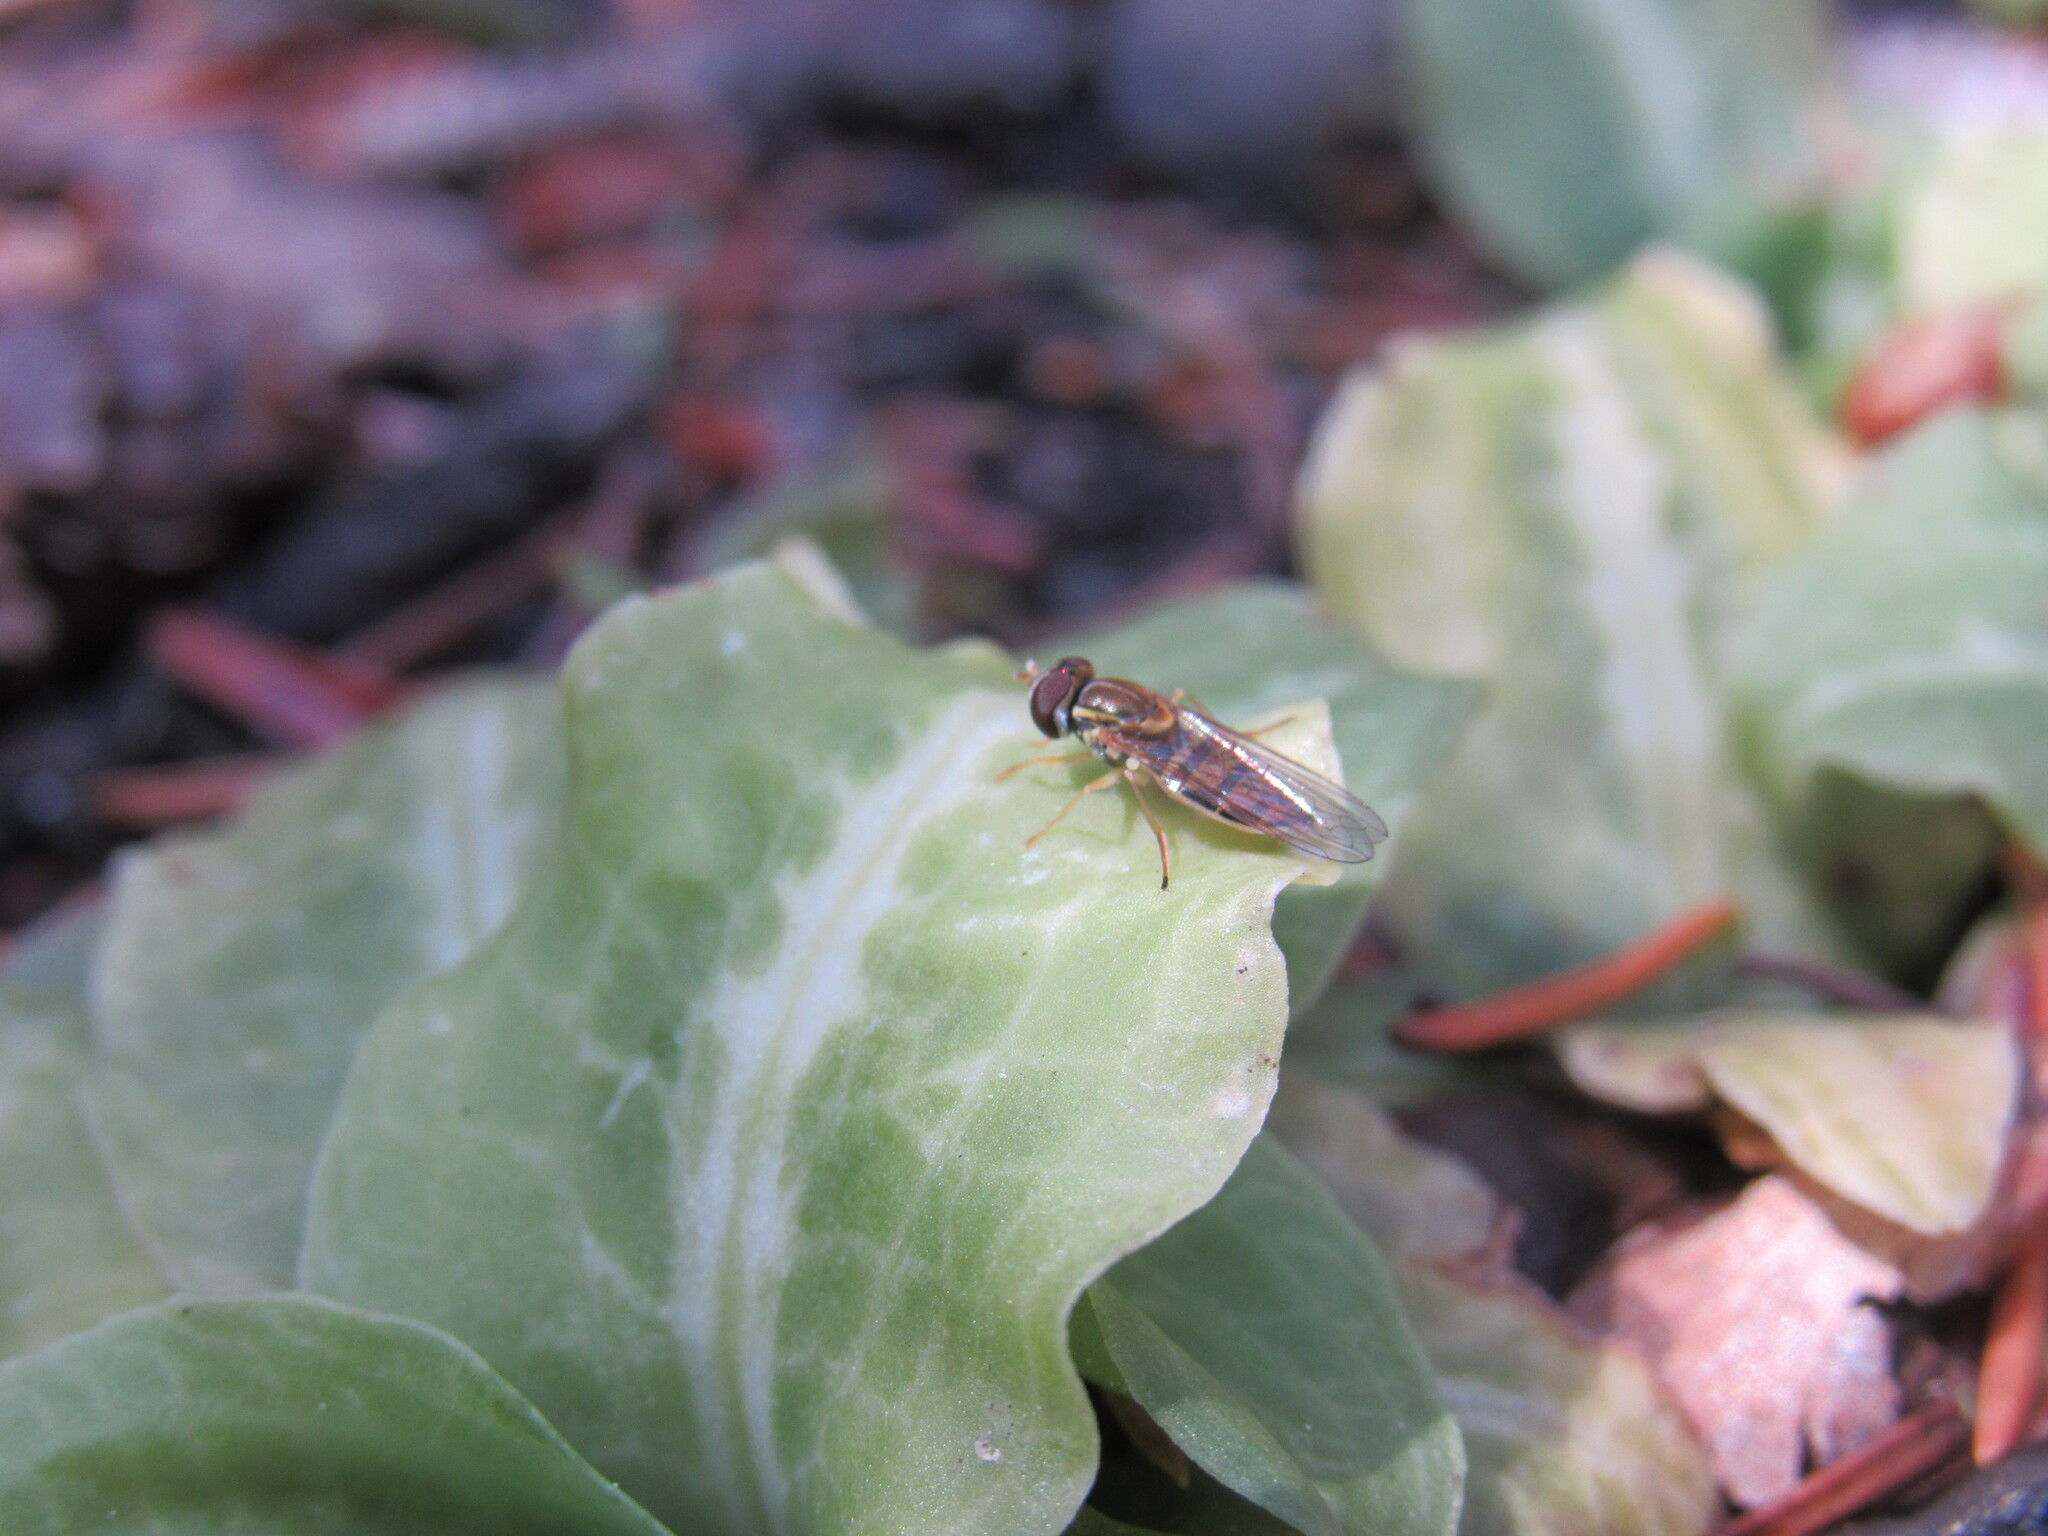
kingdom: Animalia
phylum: Arthropoda
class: Insecta
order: Diptera
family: Syrphidae
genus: Toxomerus
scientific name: Toxomerus marginatus
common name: Syrphid fly
